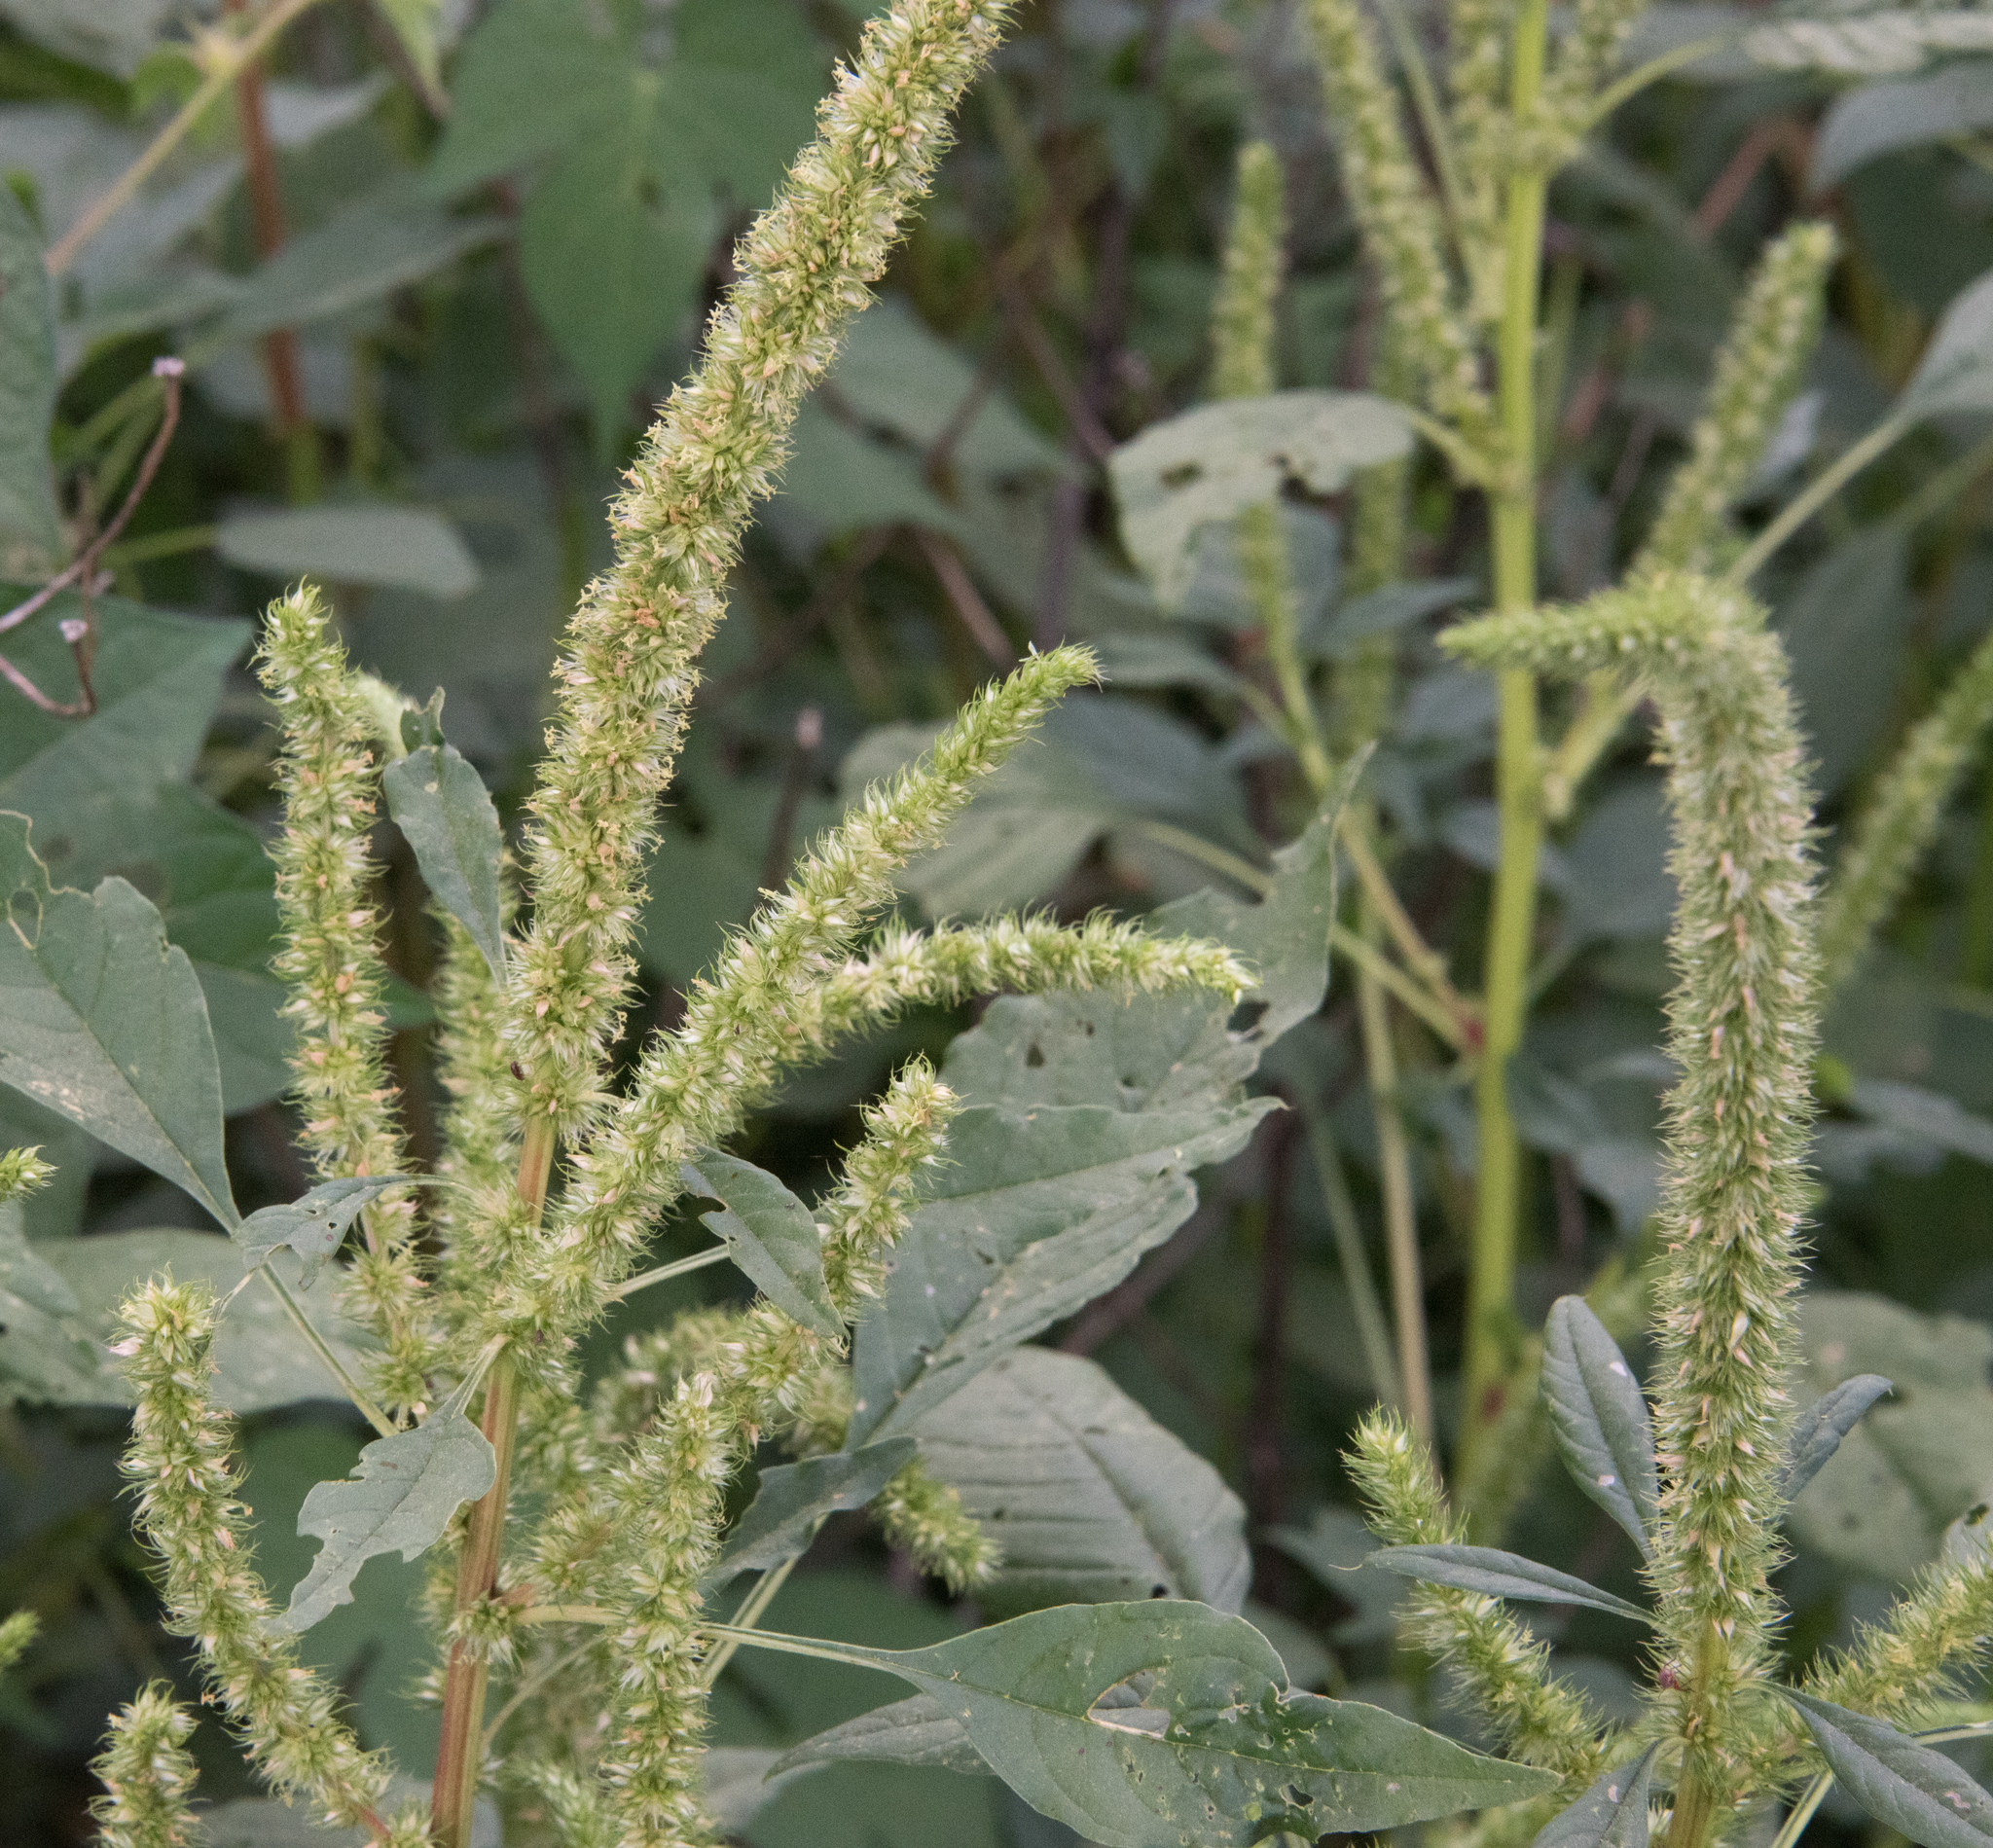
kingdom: Plantae
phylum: Tracheophyta
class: Magnoliopsida
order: Caryophyllales
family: Amaranthaceae
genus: Amaranthus
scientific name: Amaranthus palmeri
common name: Dioecious amaranth
